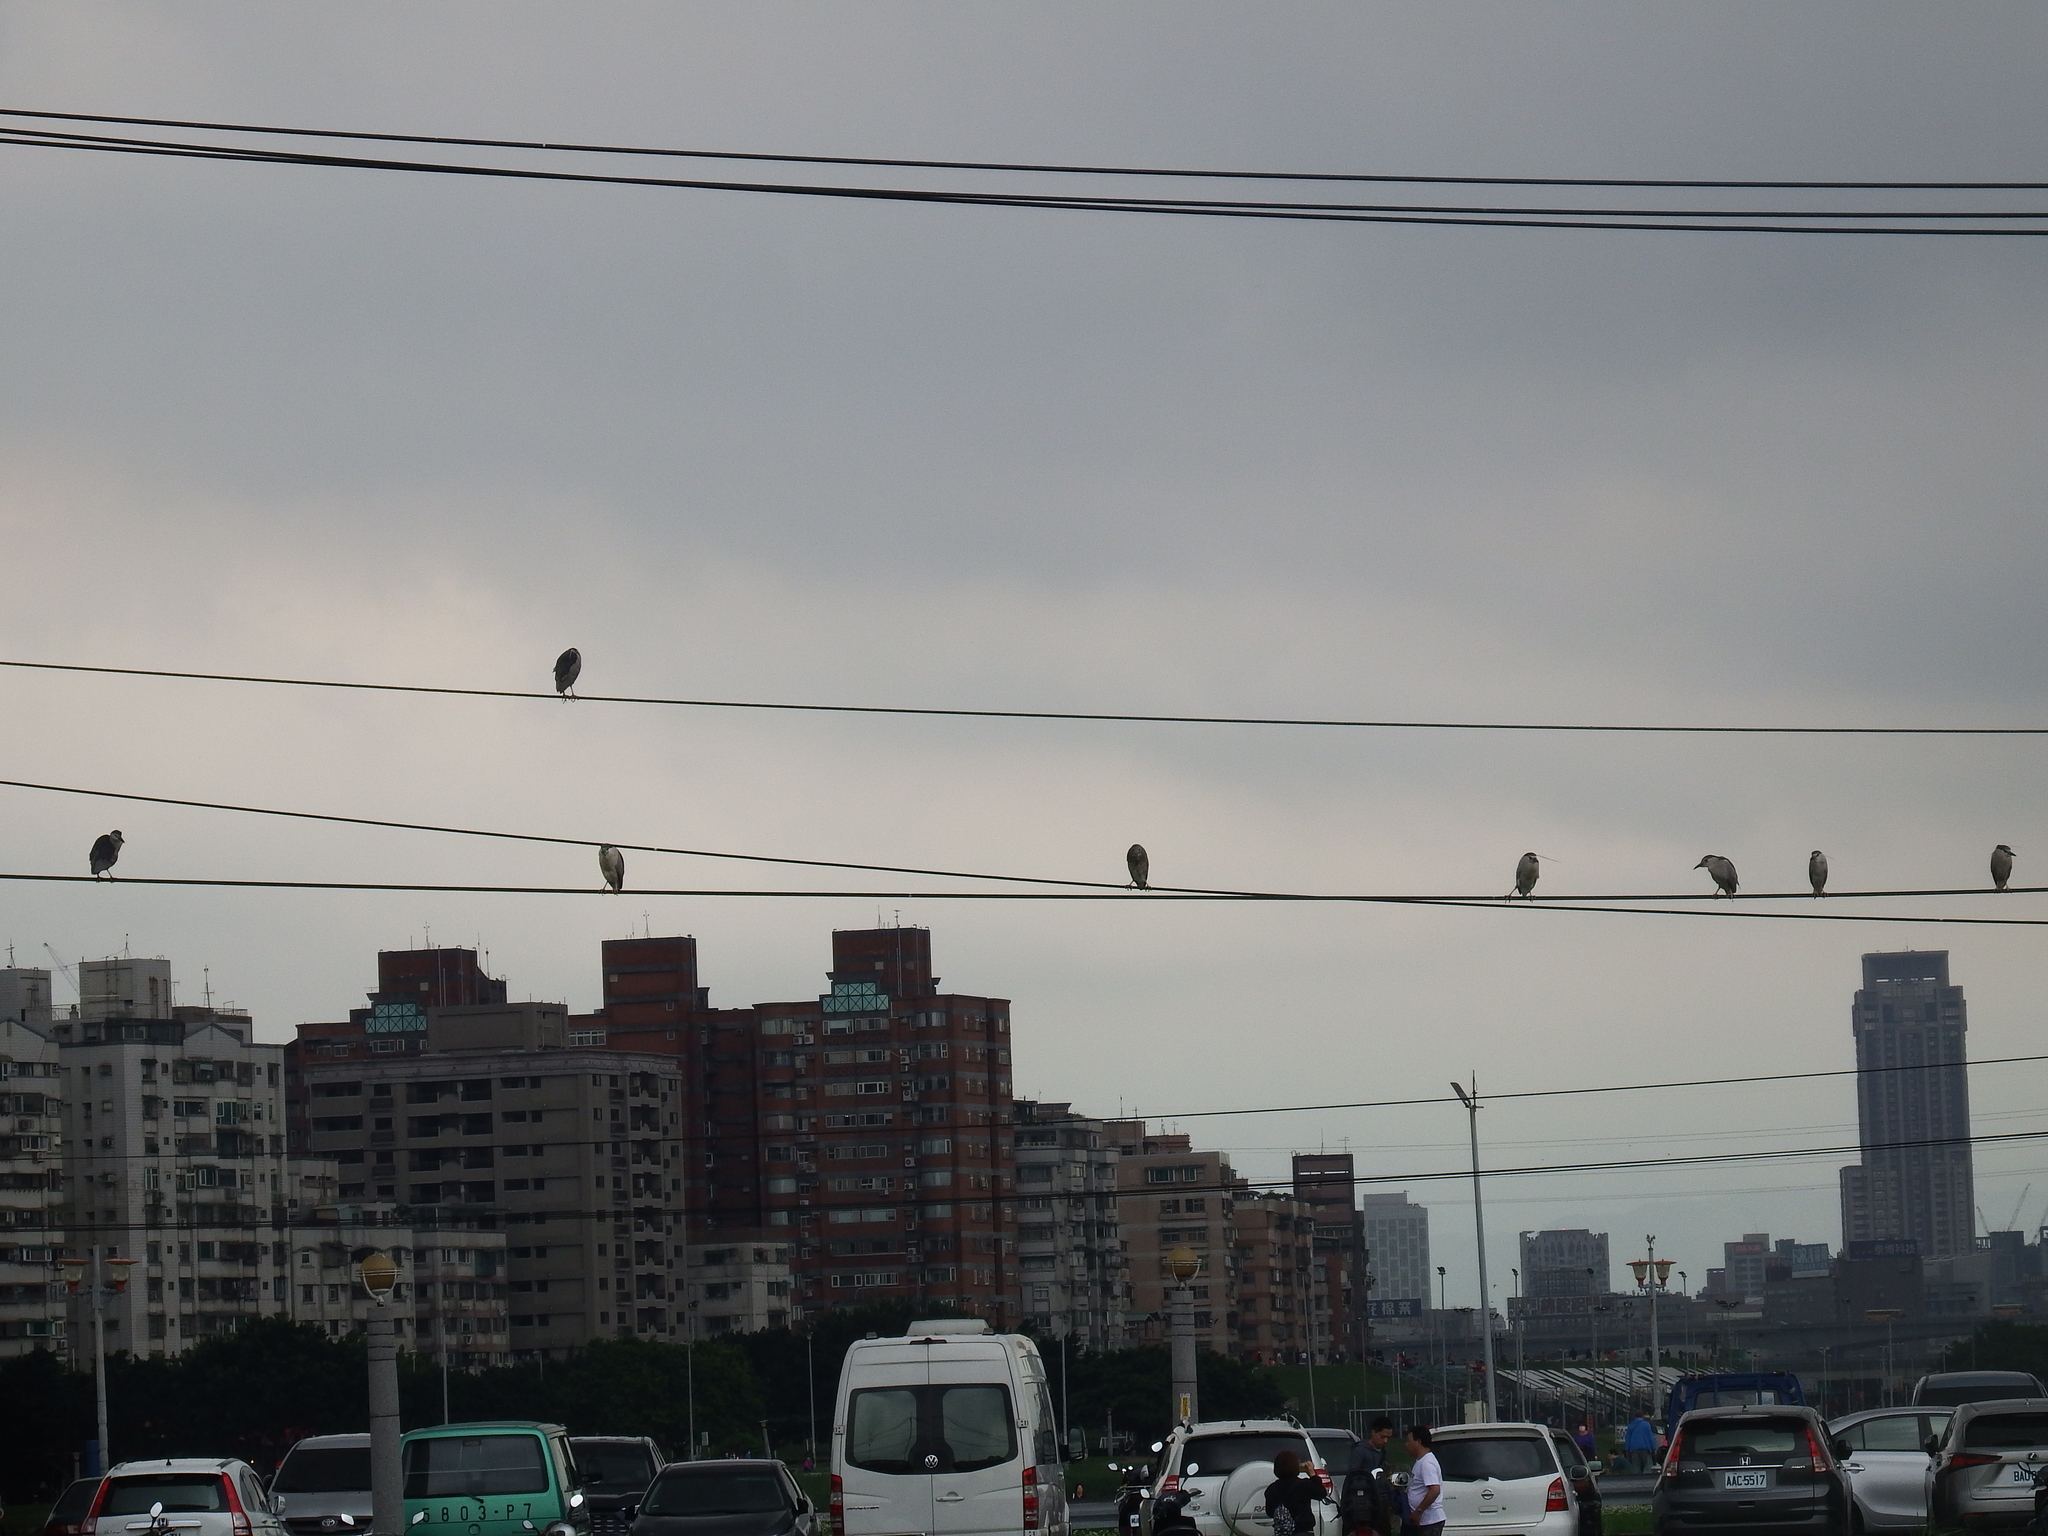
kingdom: Animalia
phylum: Chordata
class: Aves
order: Pelecaniformes
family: Ardeidae
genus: Nycticorax
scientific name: Nycticorax nycticorax
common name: Black-crowned night heron
